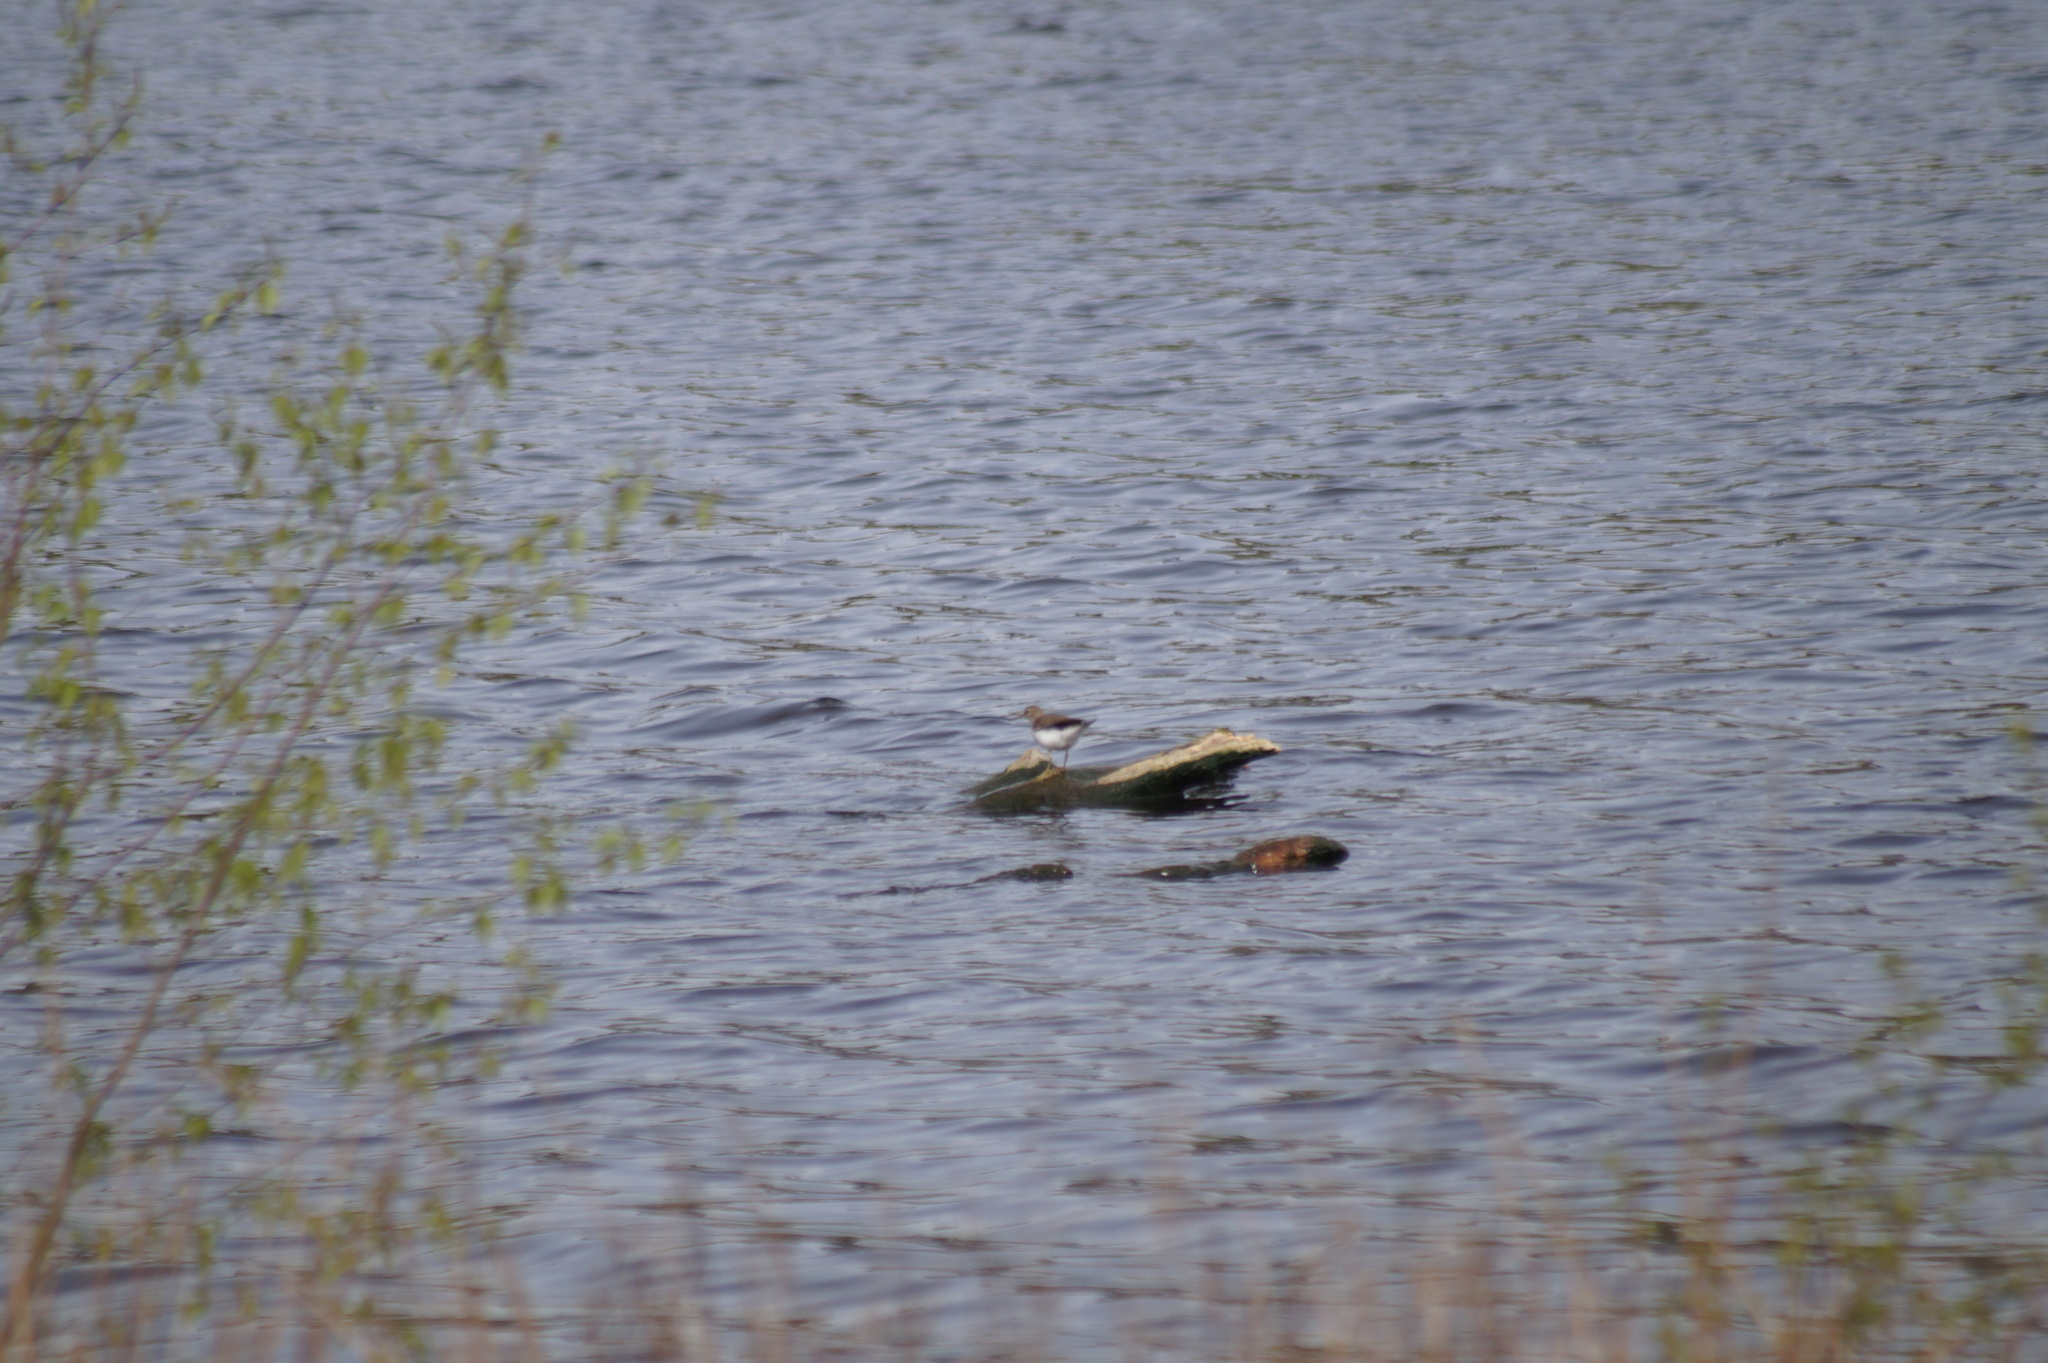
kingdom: Animalia
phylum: Chordata
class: Aves
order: Charadriiformes
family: Scolopacidae
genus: Actitis
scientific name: Actitis hypoleucos
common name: Common sandpiper
